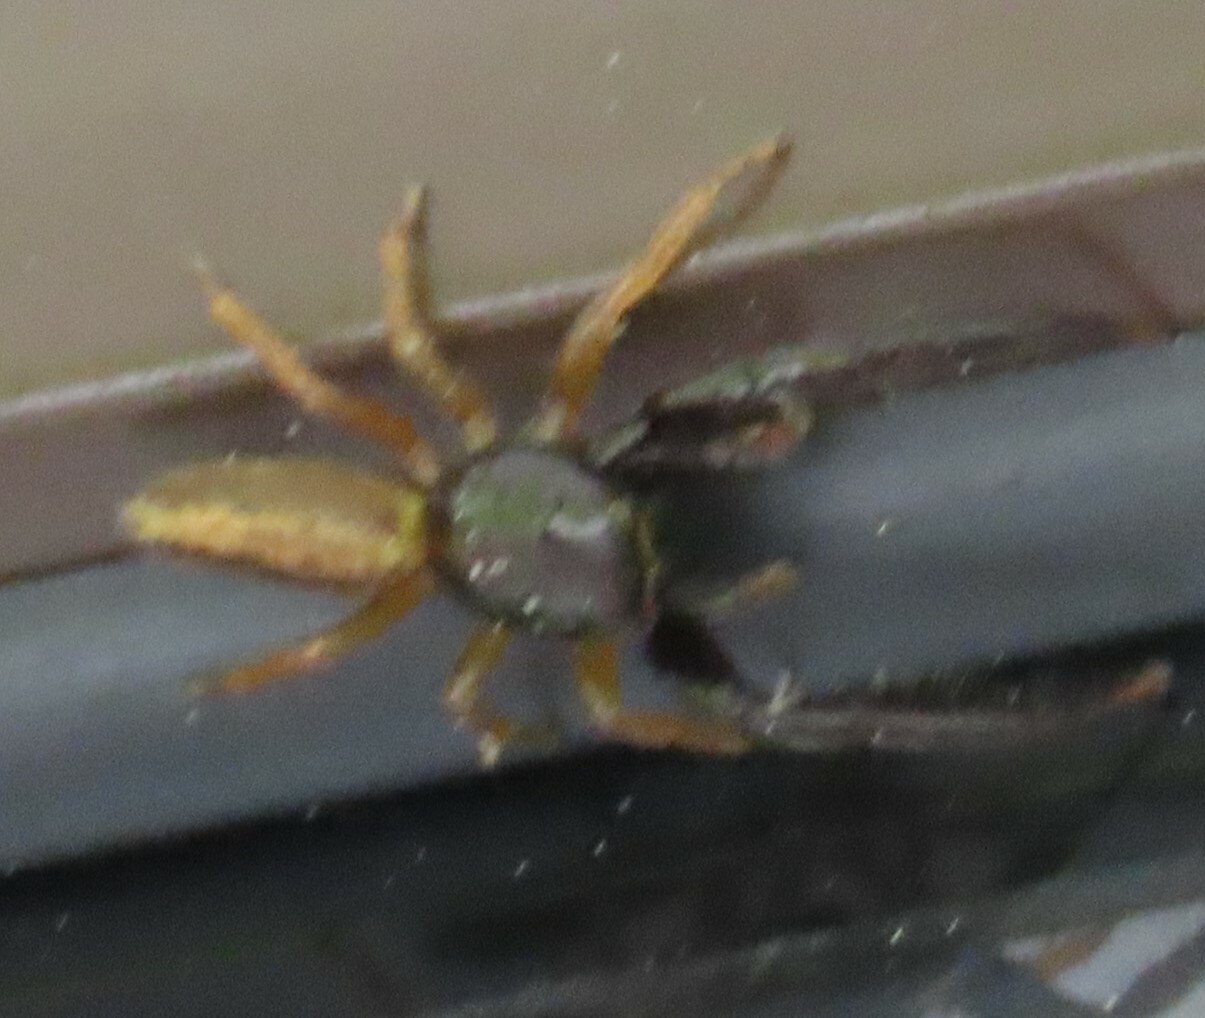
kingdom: Animalia
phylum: Arthropoda
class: Arachnida
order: Araneae
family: Salticidae
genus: Trite
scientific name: Trite planiceps
